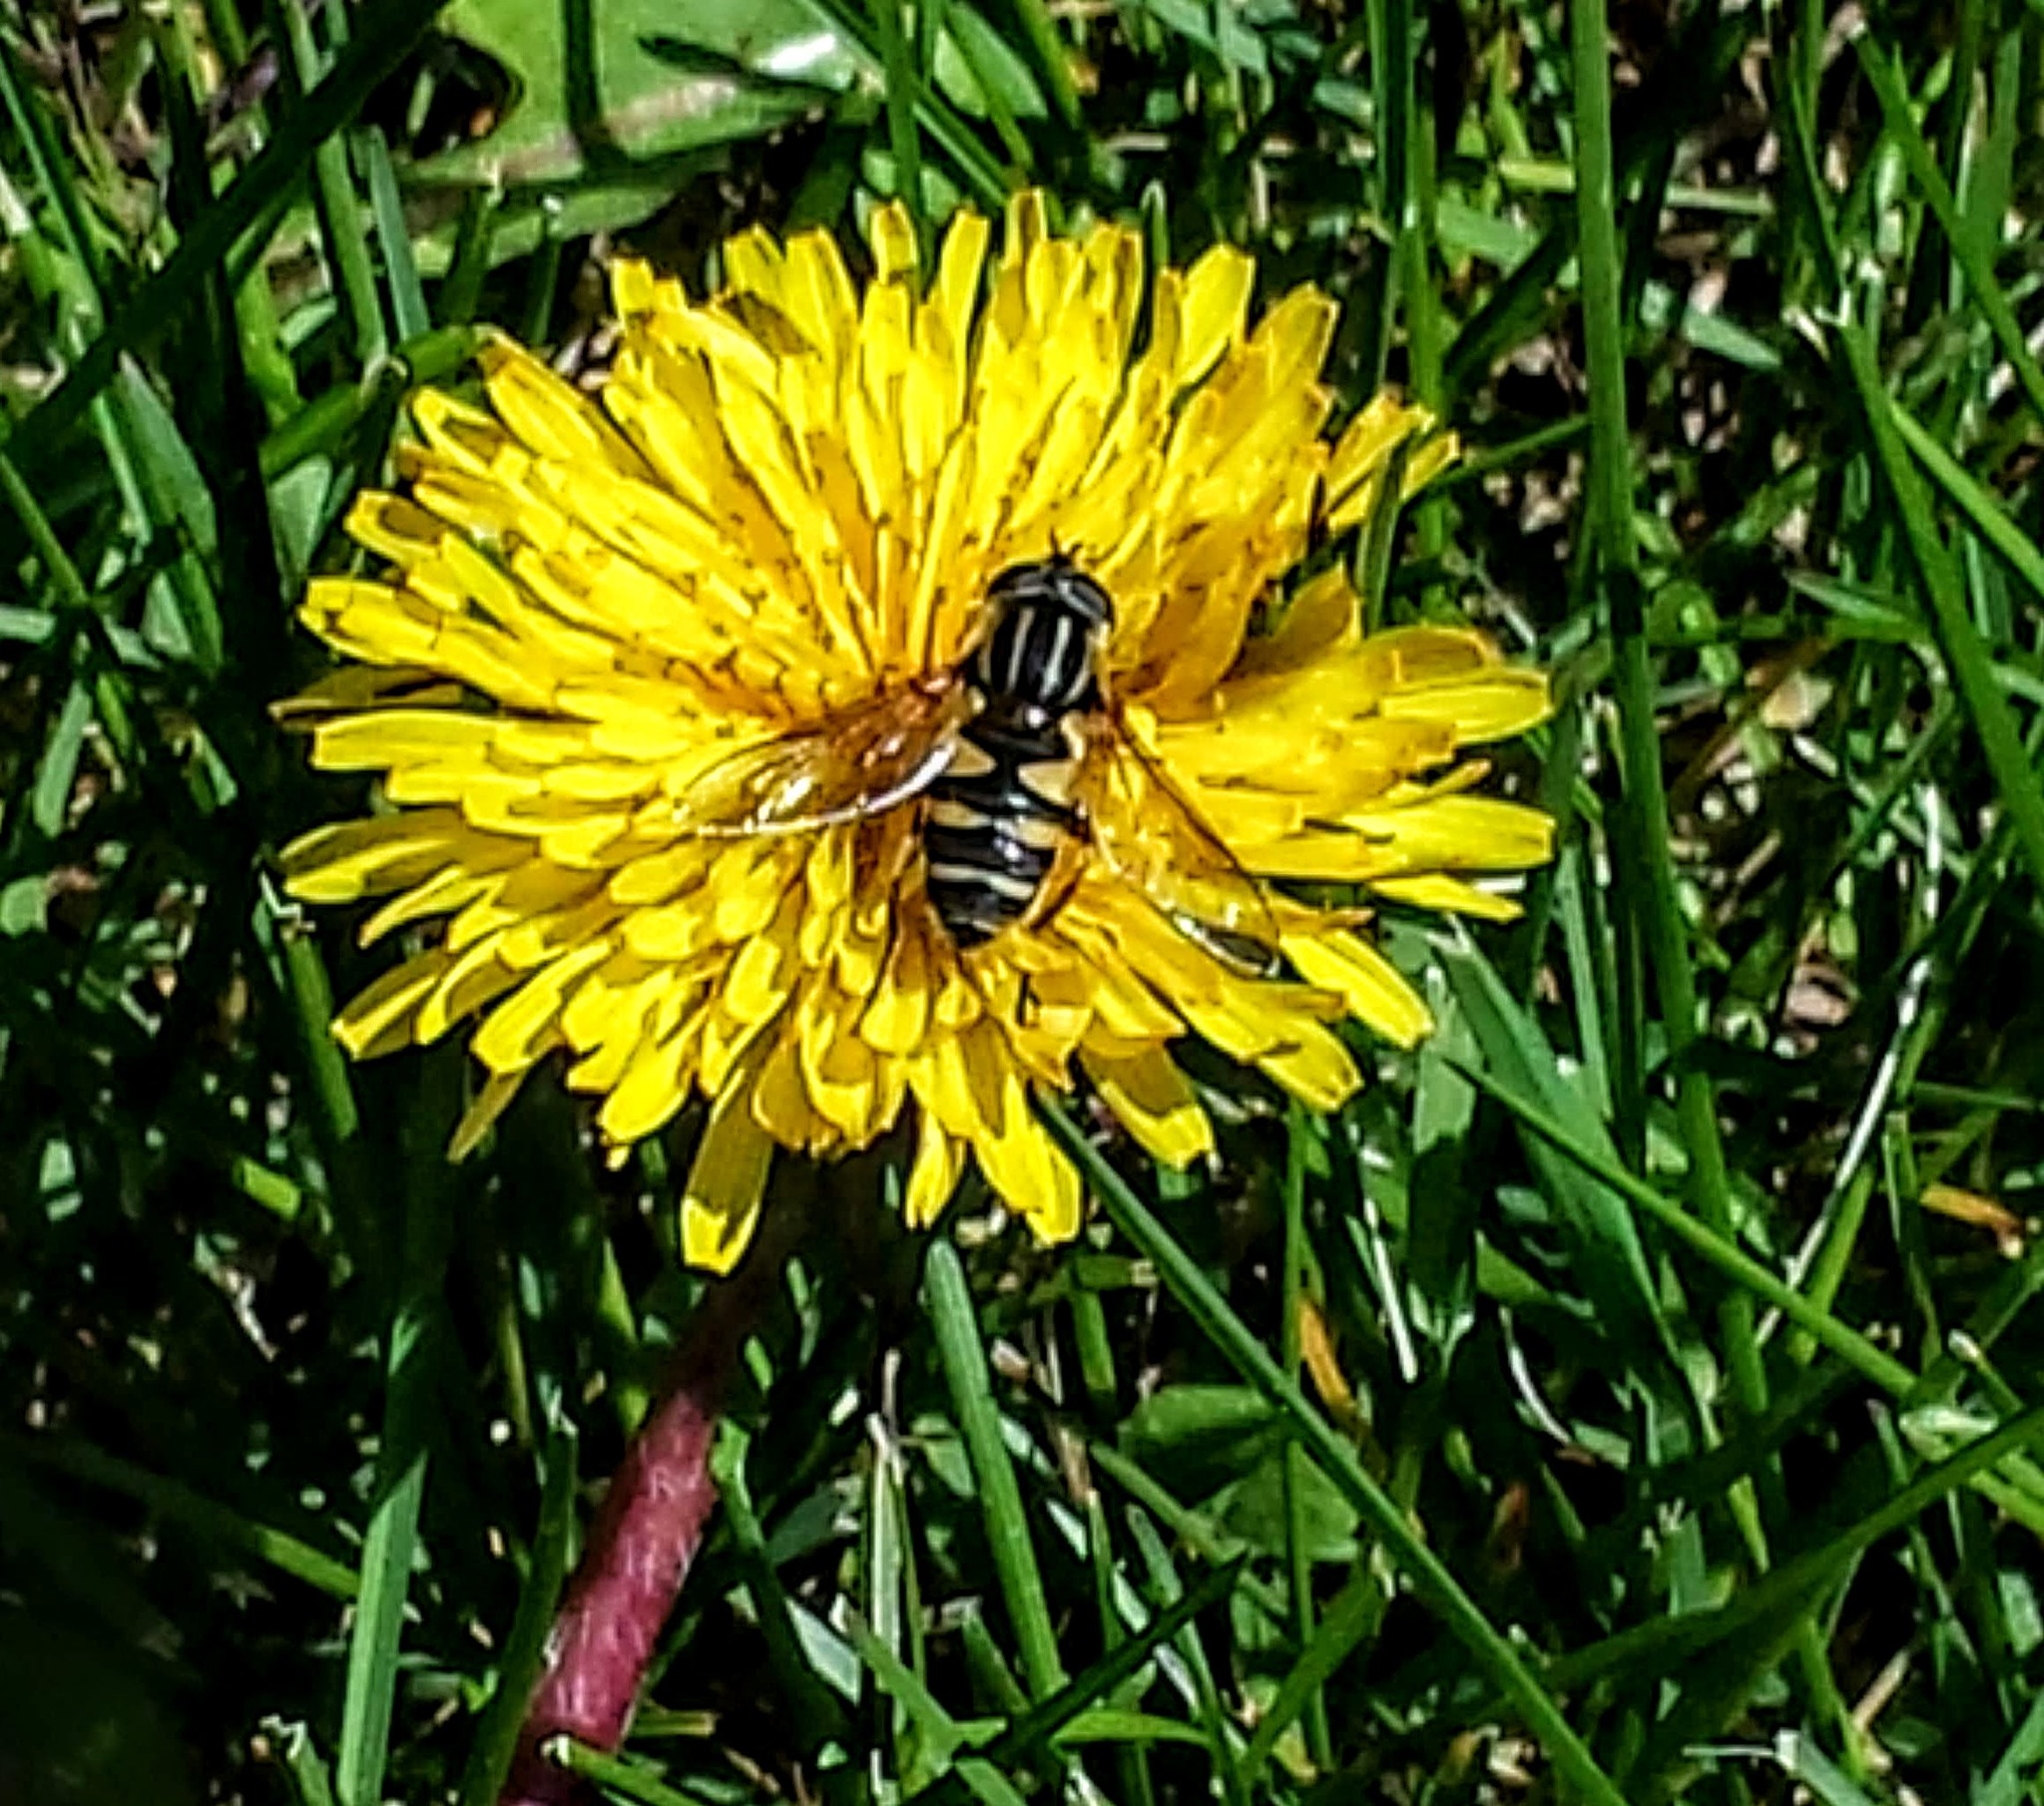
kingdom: Animalia
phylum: Arthropoda
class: Insecta
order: Diptera
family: Syrphidae
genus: Helophilus
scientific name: Helophilus fasciatus
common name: Narrow-headed marsh fly
